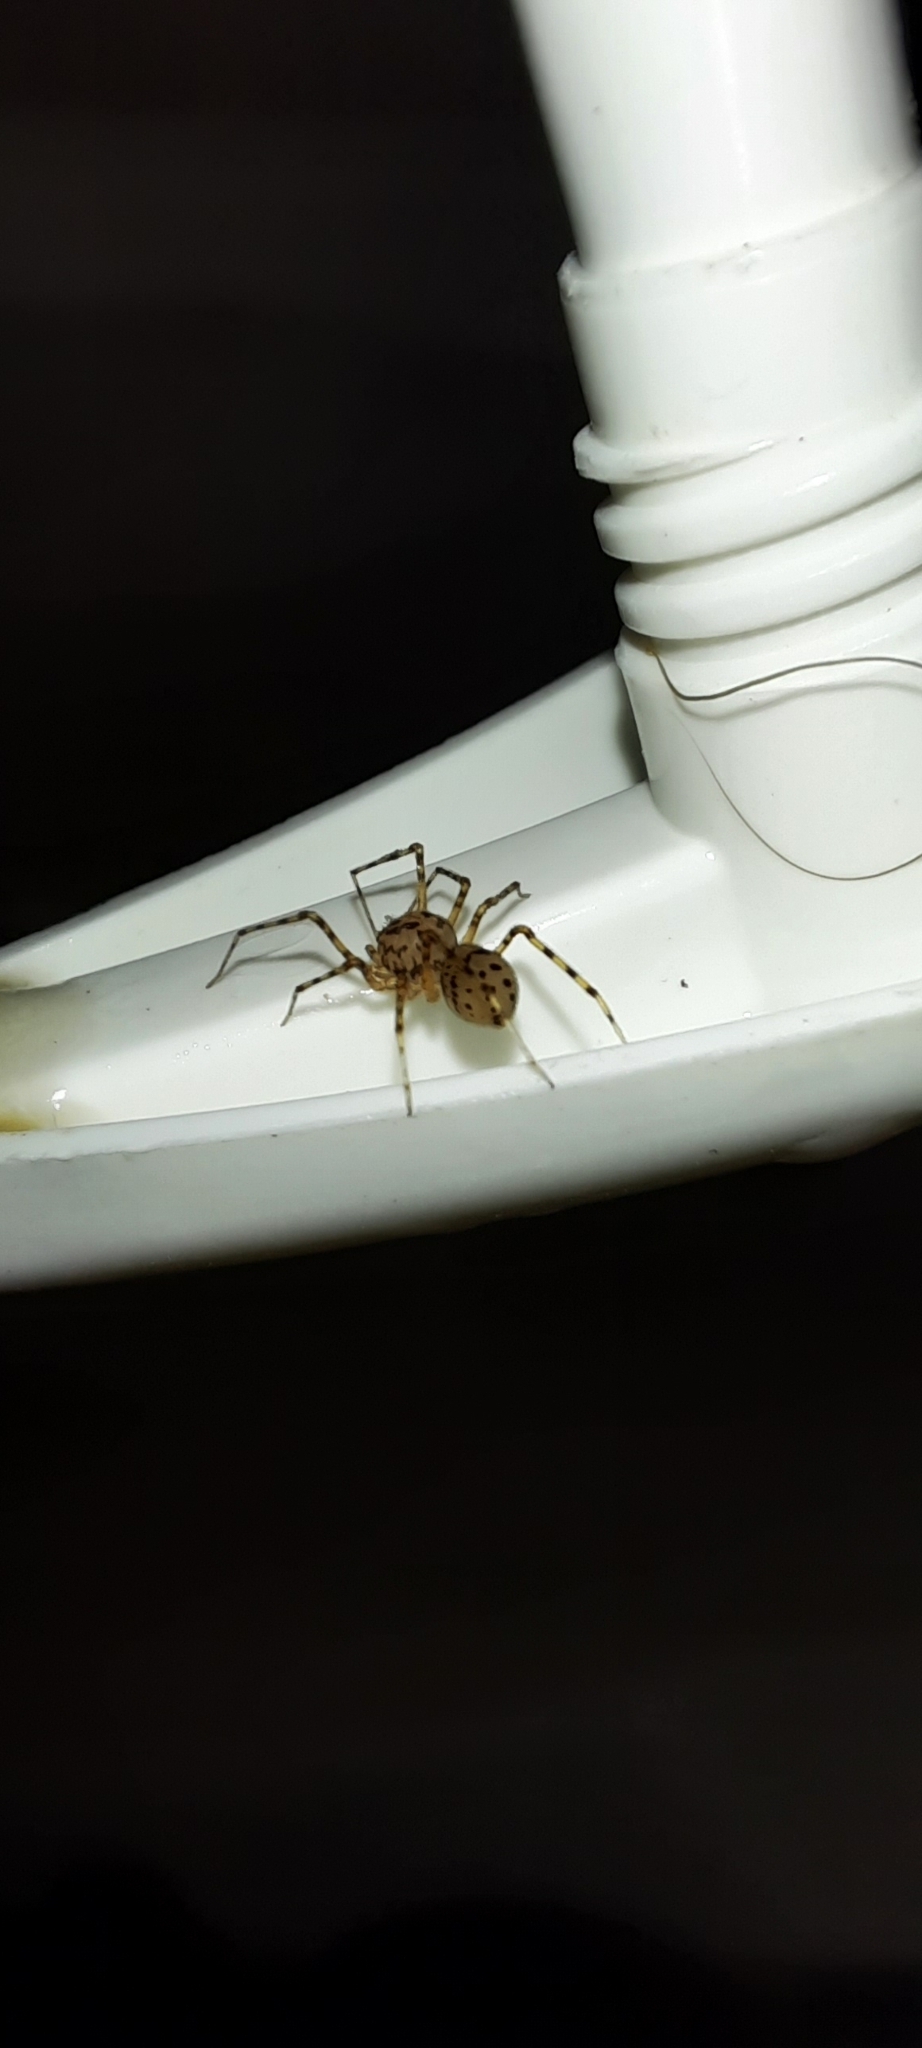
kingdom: Animalia
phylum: Arthropoda
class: Arachnida
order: Araneae
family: Scytodidae
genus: Scytodes
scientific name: Scytodes thoracica
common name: Spitting spider
